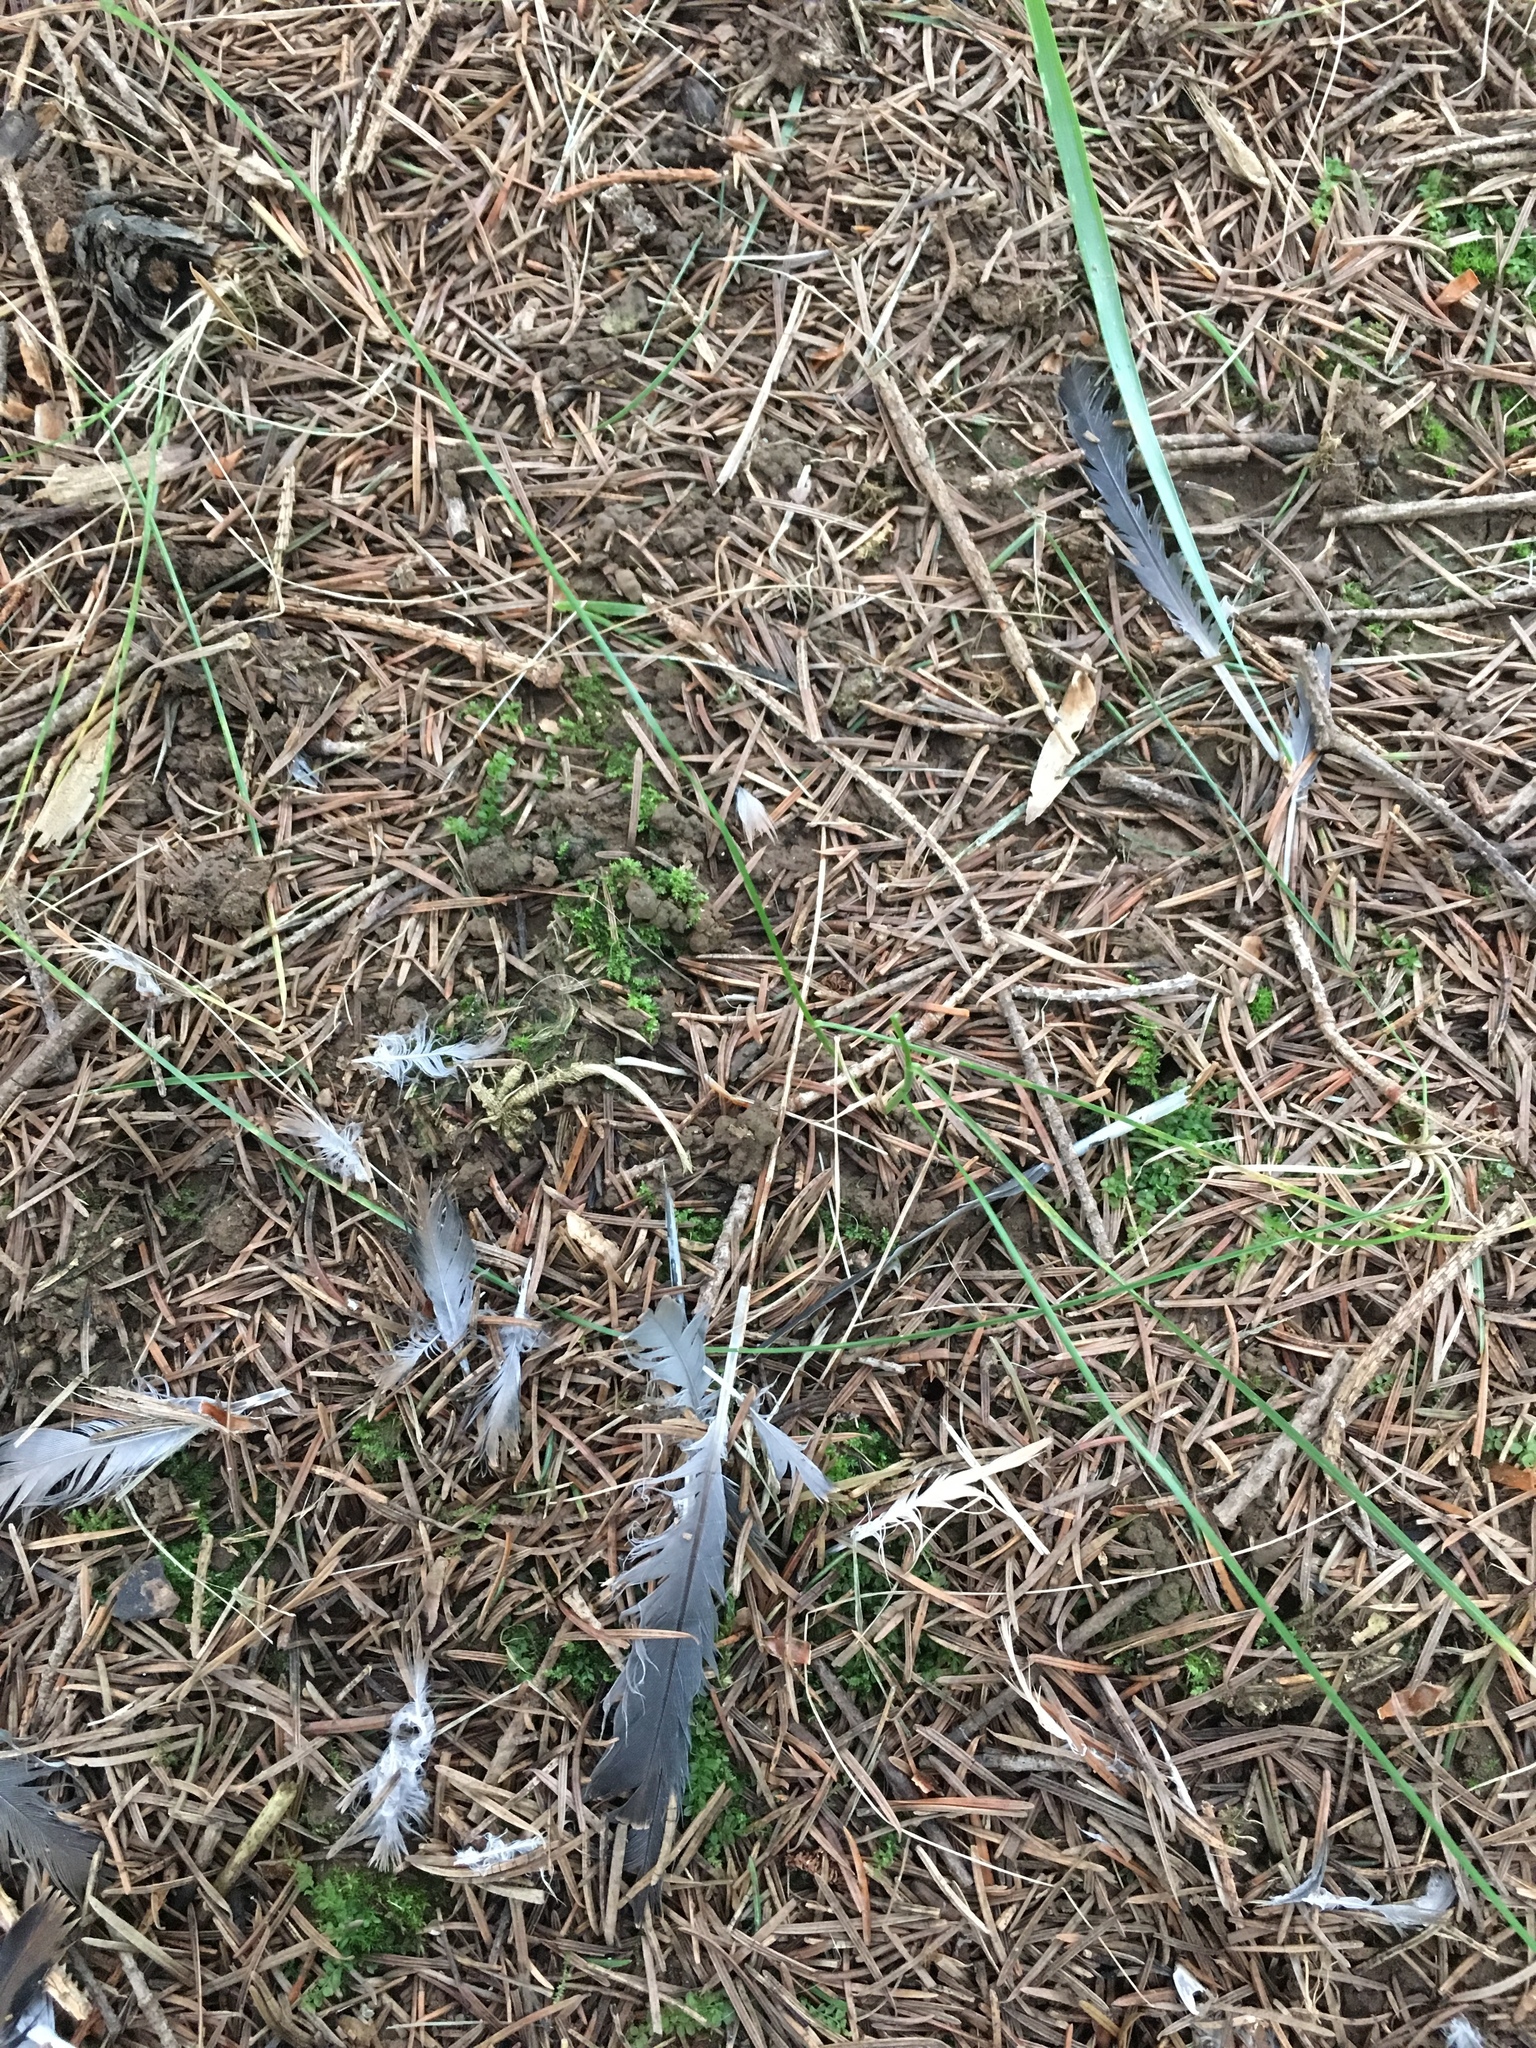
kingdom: Animalia
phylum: Chordata
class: Aves
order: Columbiformes
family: Columbidae
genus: Zenaida
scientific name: Zenaida macroura
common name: Mourning dove
